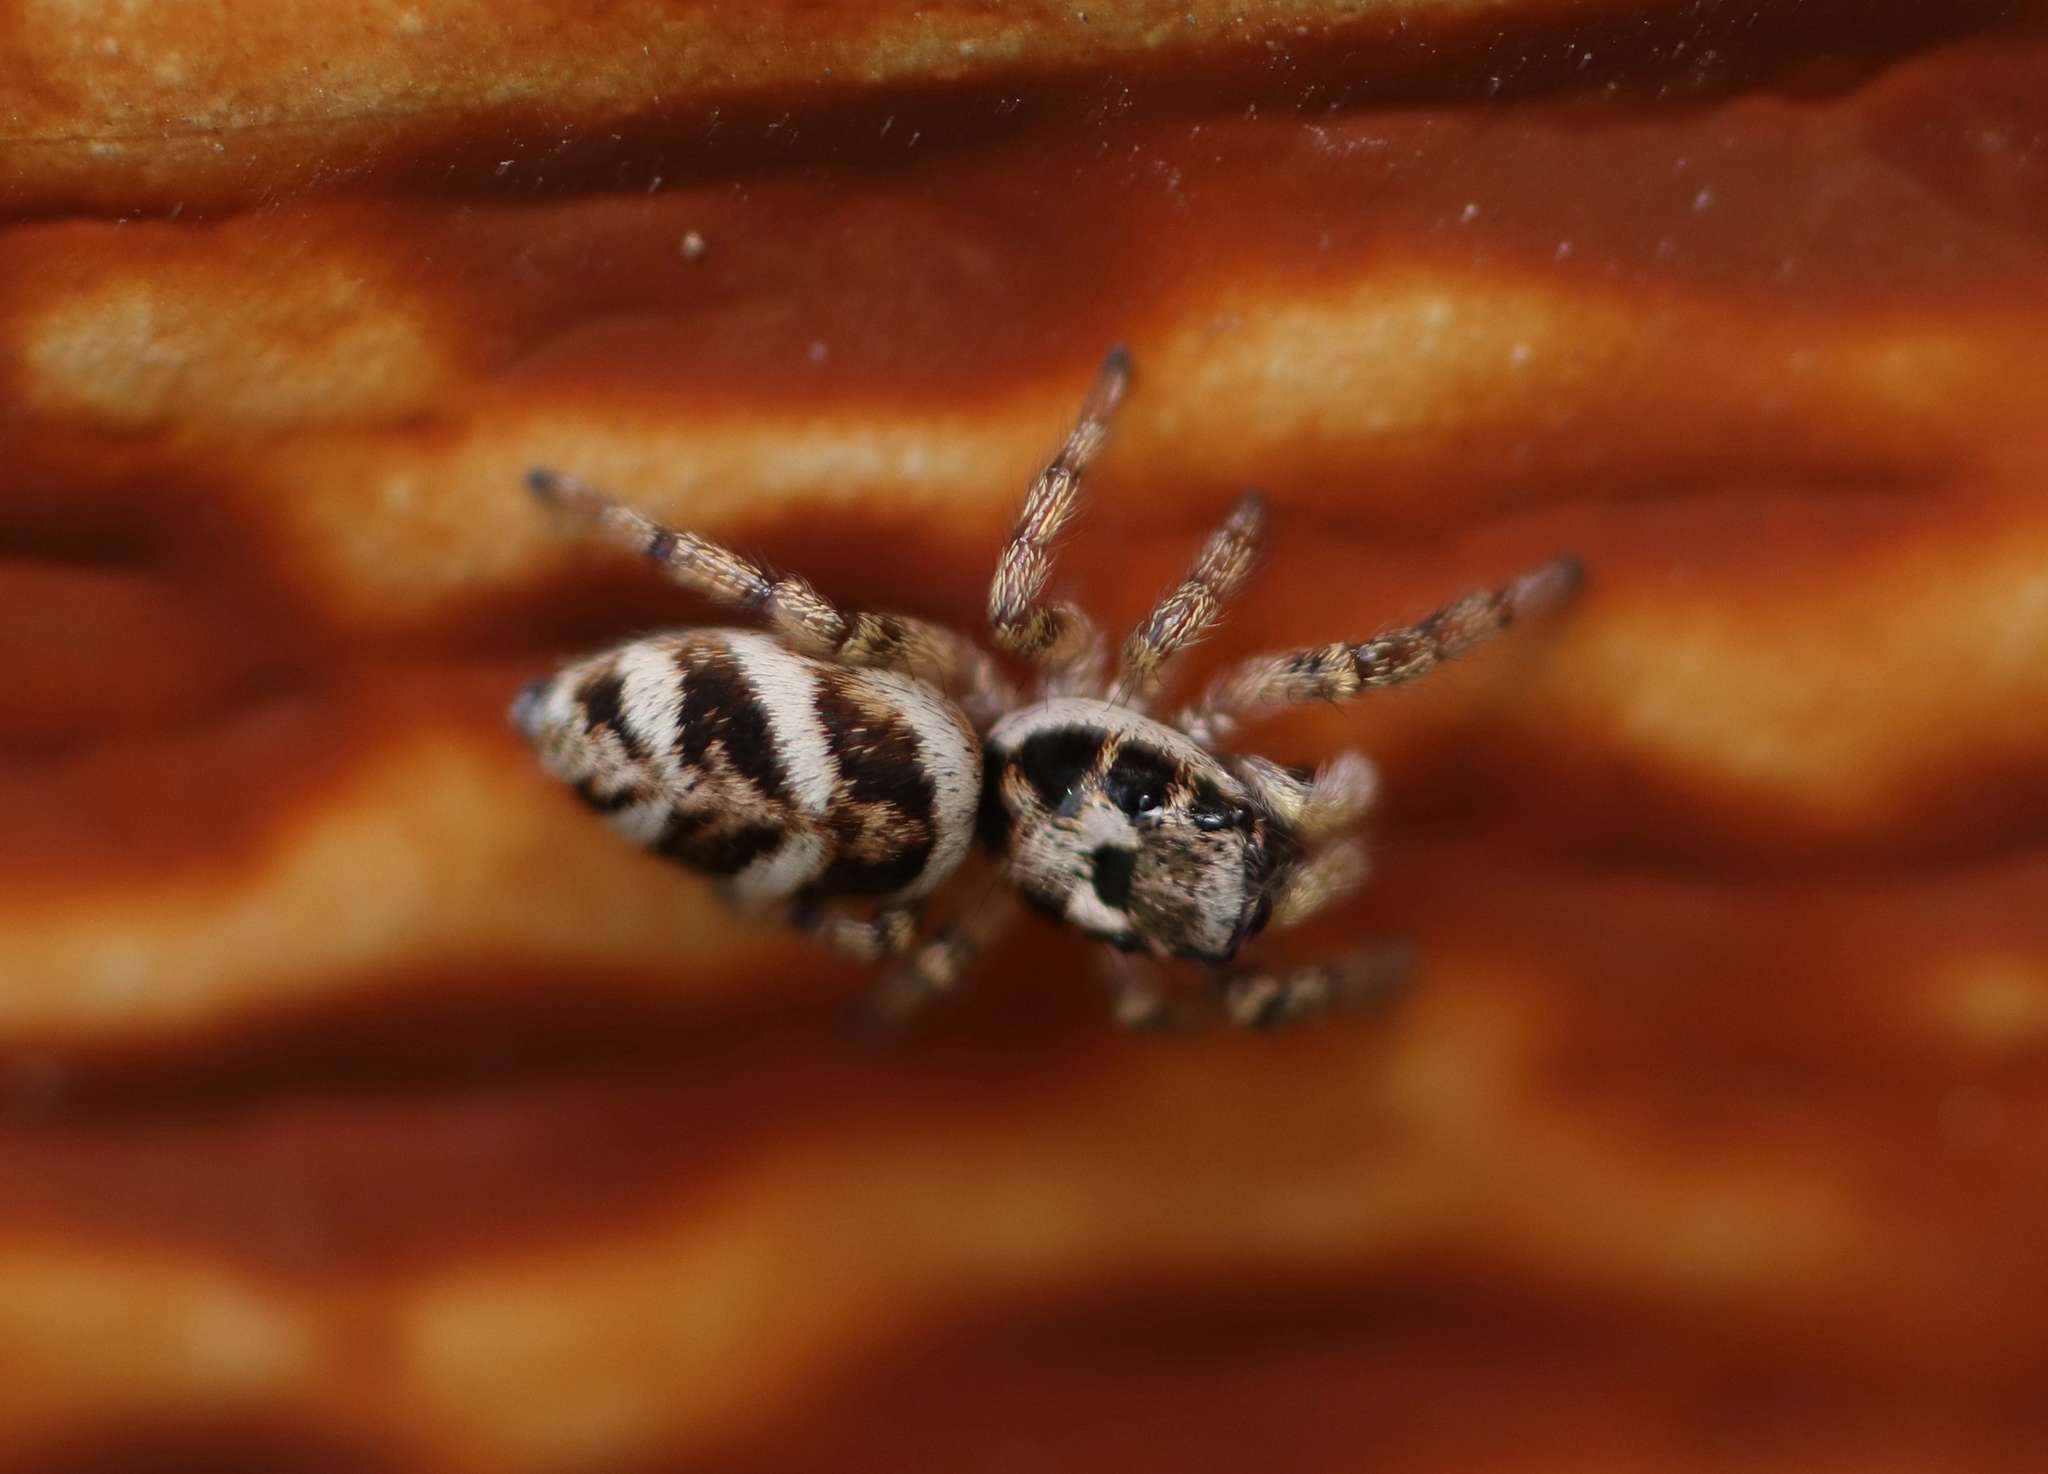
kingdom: Animalia
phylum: Arthropoda
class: Arachnida
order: Araneae
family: Salticidae
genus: Salticus
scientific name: Salticus scenicus
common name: Zebra jumper
